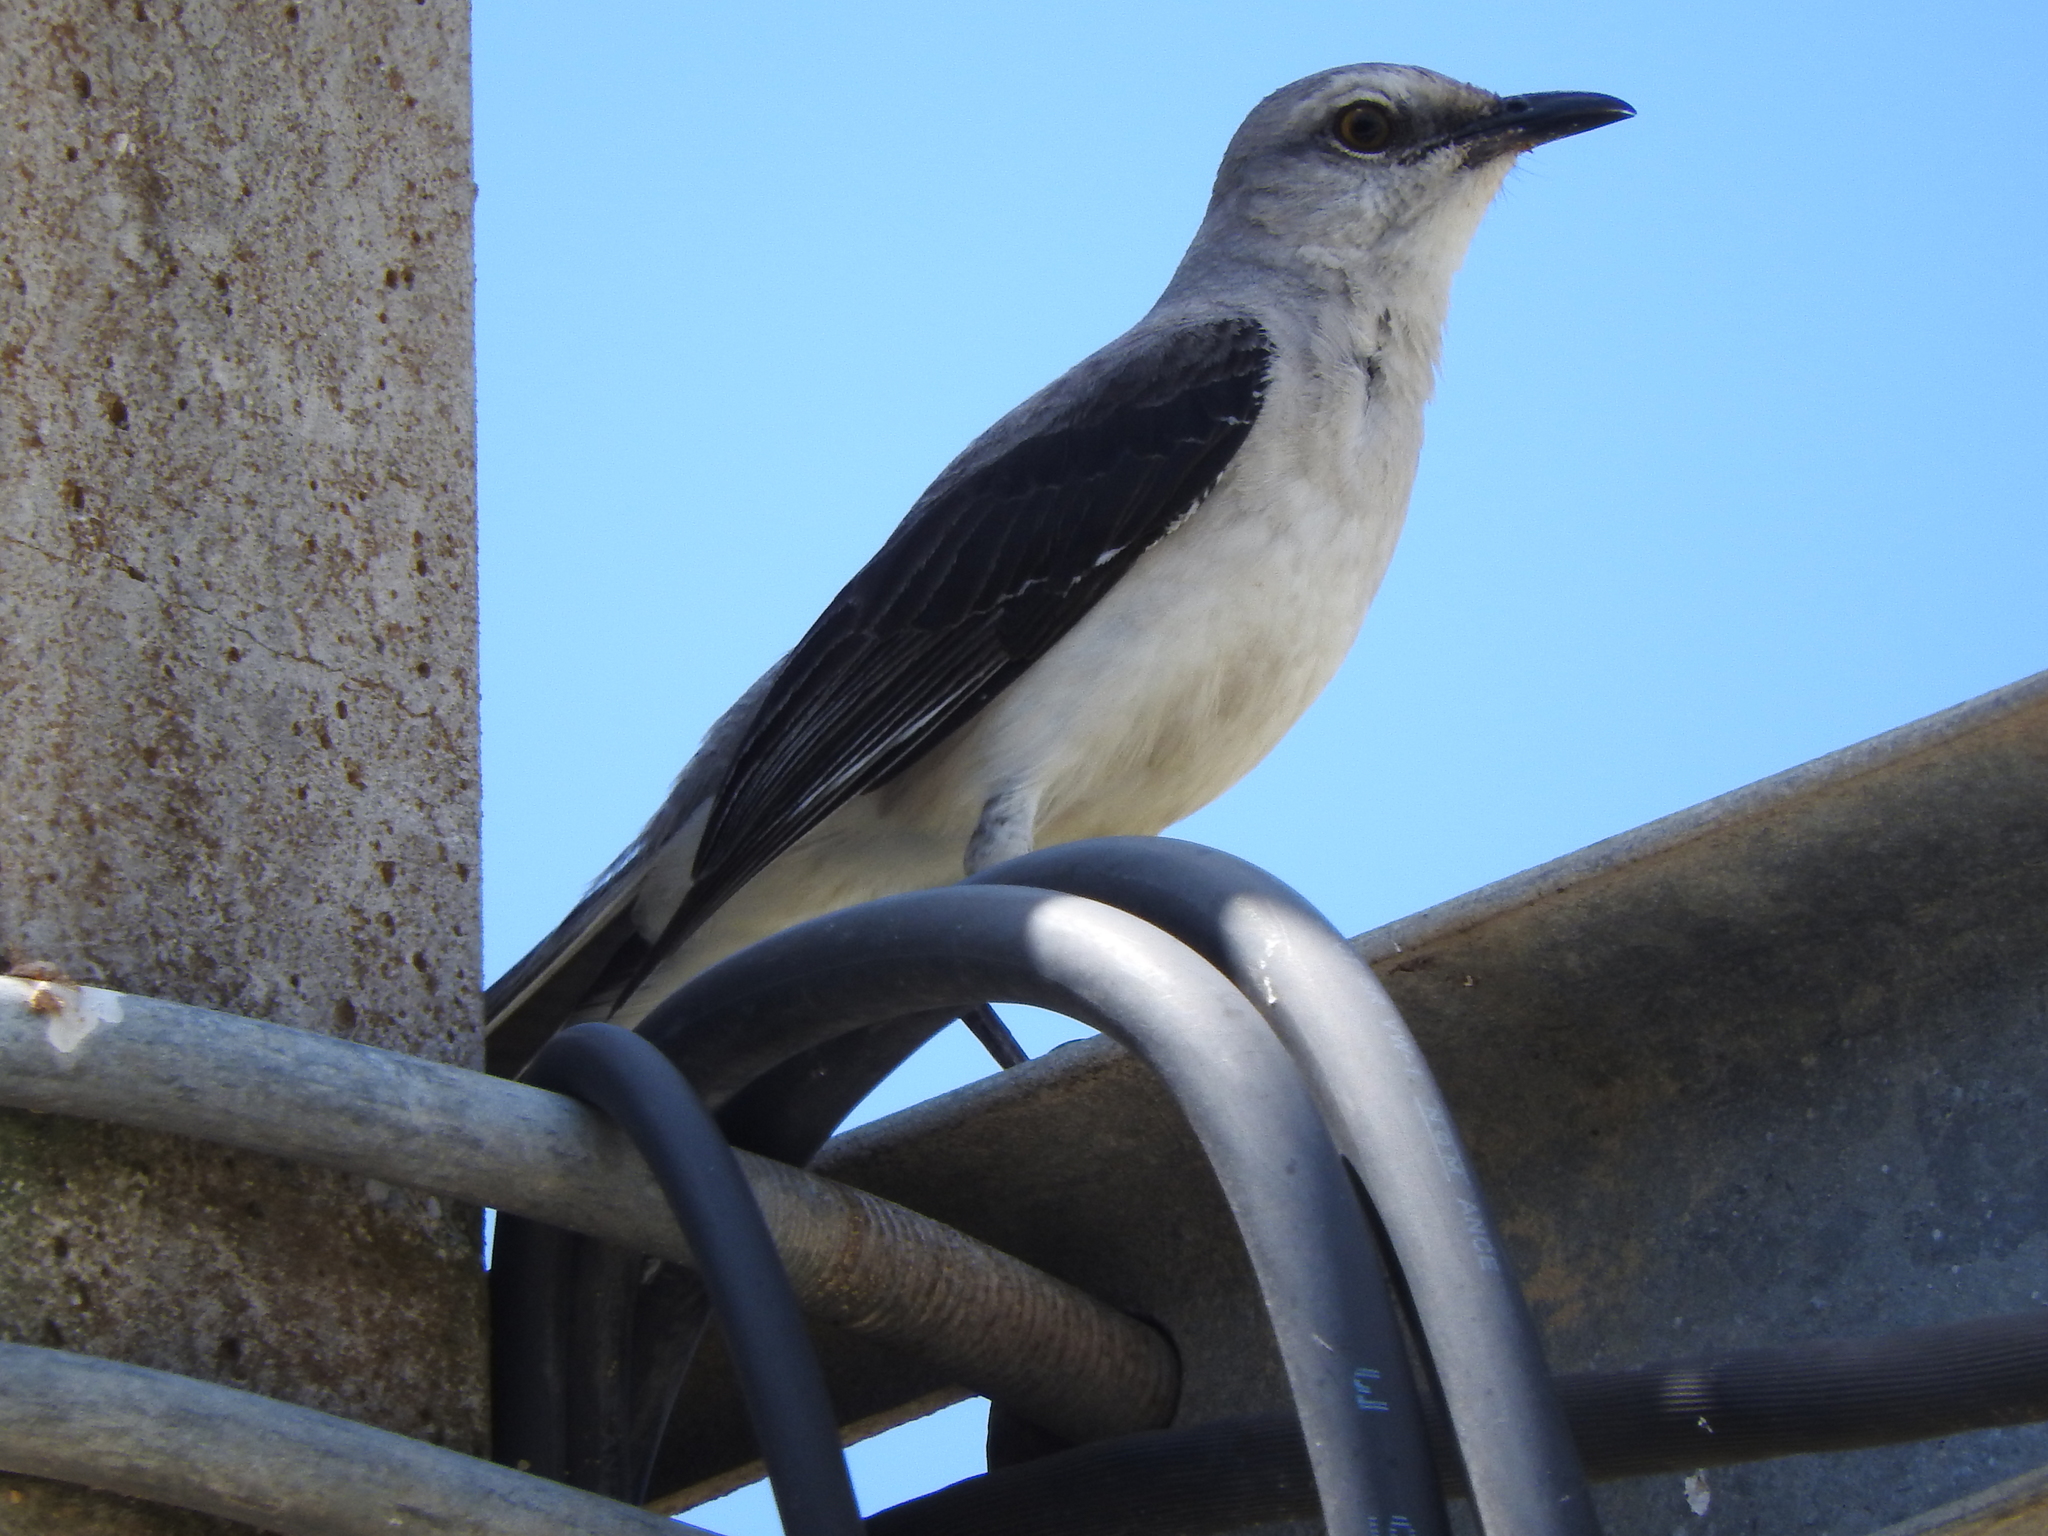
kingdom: Animalia
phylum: Chordata
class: Aves
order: Passeriformes
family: Mimidae
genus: Mimus
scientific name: Mimus gilvus
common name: Tropical mockingbird
